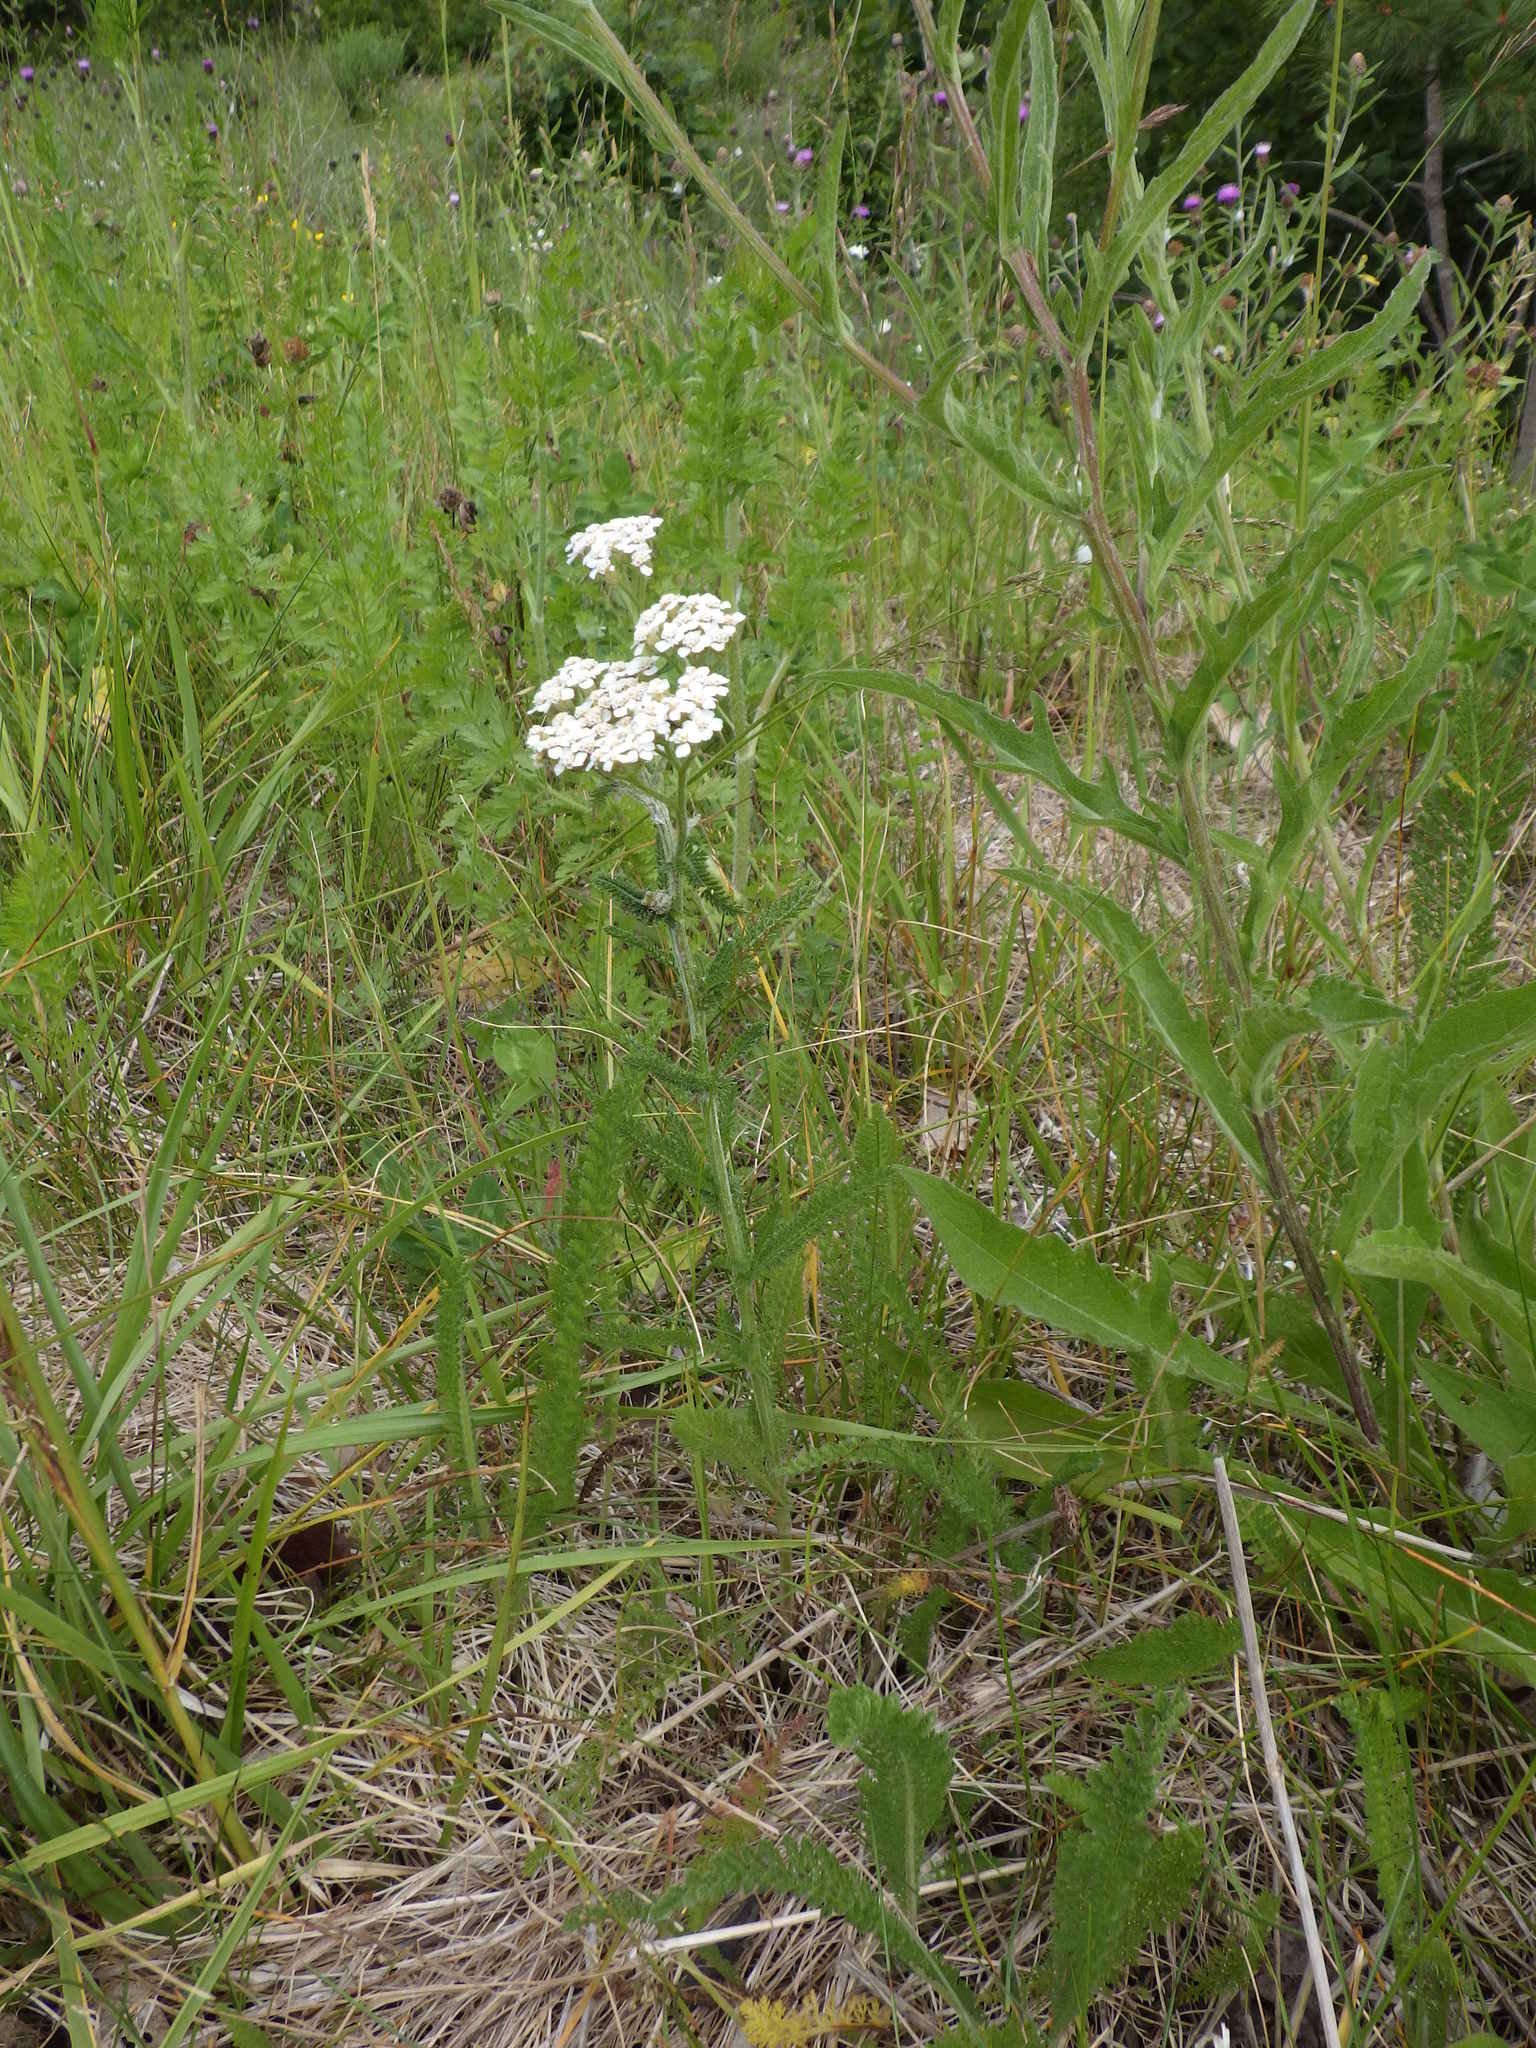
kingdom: Plantae
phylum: Tracheophyta
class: Magnoliopsida
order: Asterales
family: Asteraceae
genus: Achillea
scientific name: Achillea millefolium
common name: Yarrow
